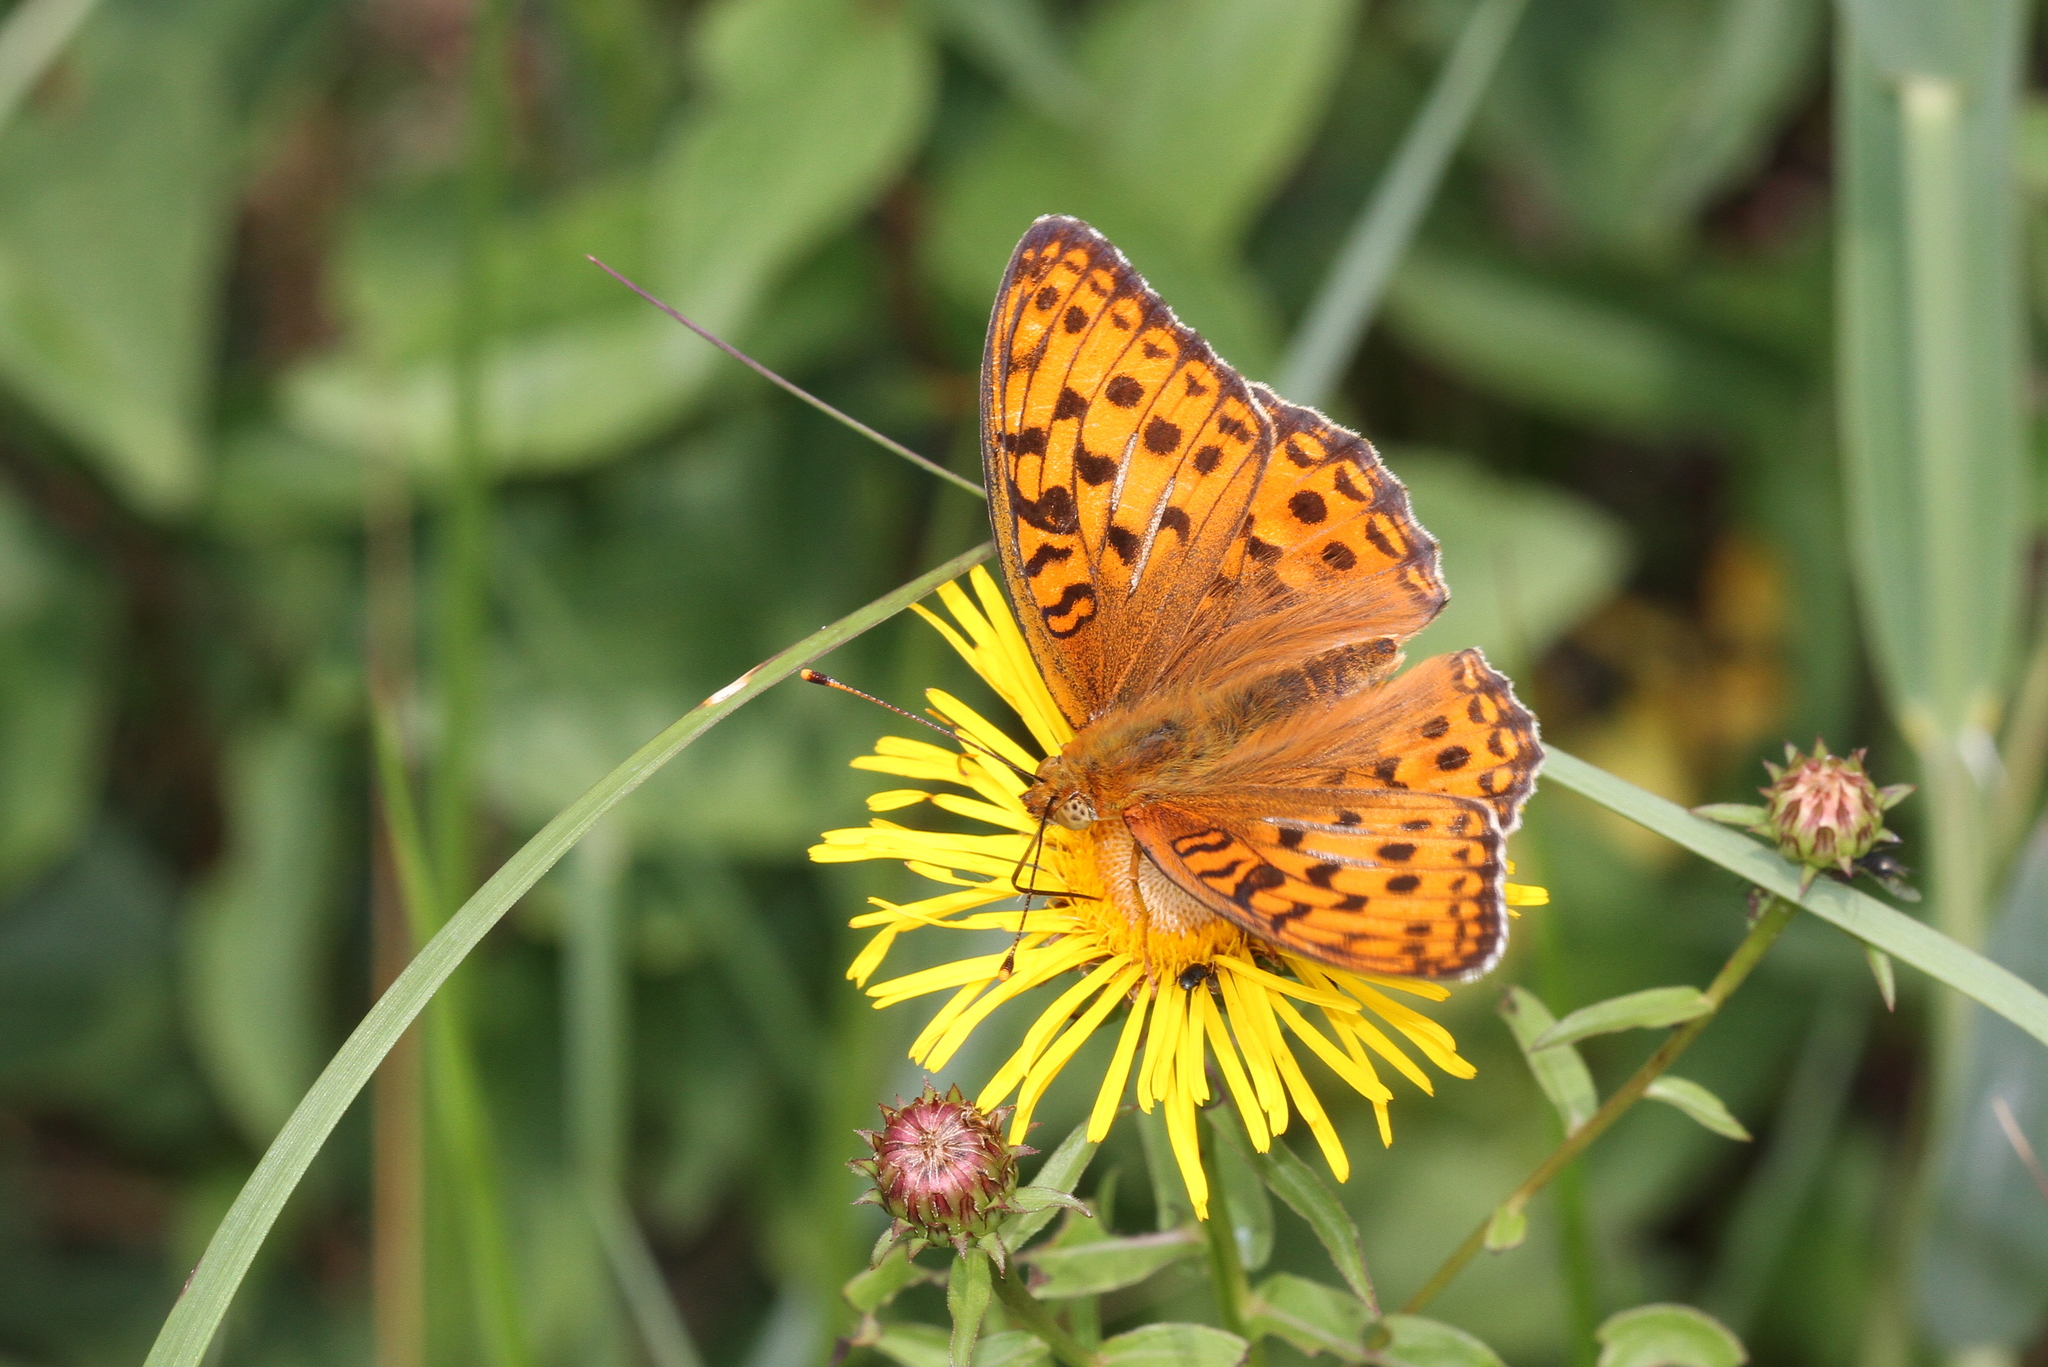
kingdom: Animalia
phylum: Arthropoda
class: Insecta
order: Lepidoptera
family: Nymphalidae
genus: Fabriciana
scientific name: Fabriciana adippe
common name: High brown fritillary
